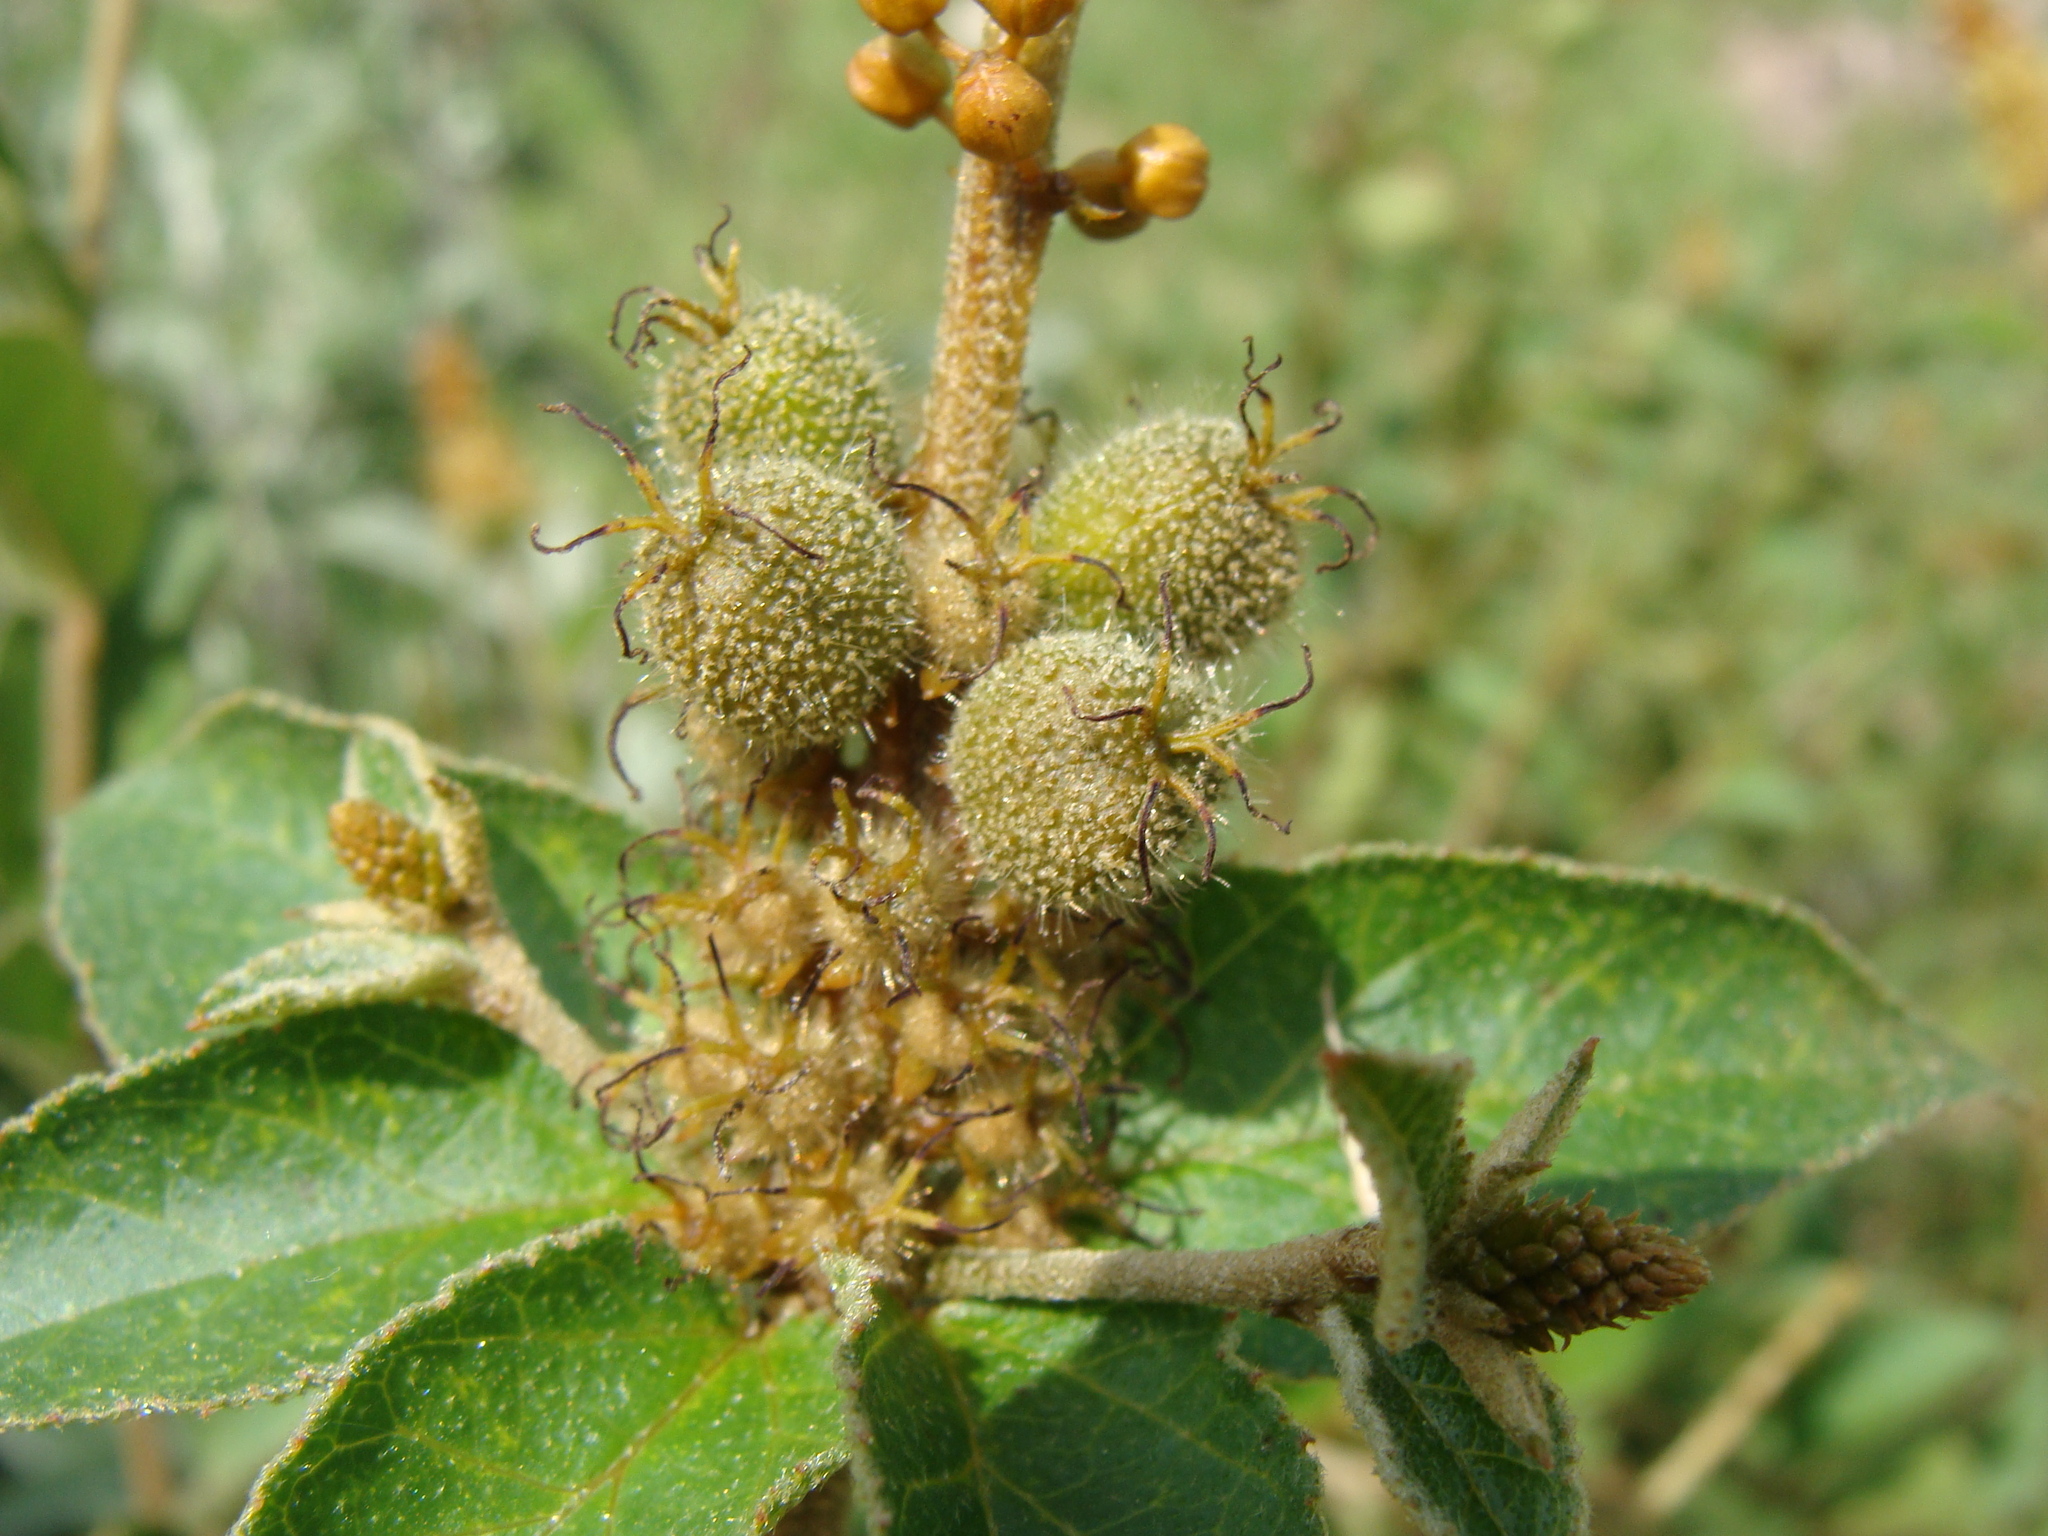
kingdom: Plantae
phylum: Tracheophyta
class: Magnoliopsida
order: Malpighiales
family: Euphorbiaceae
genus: Croton
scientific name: Croton adspersus
